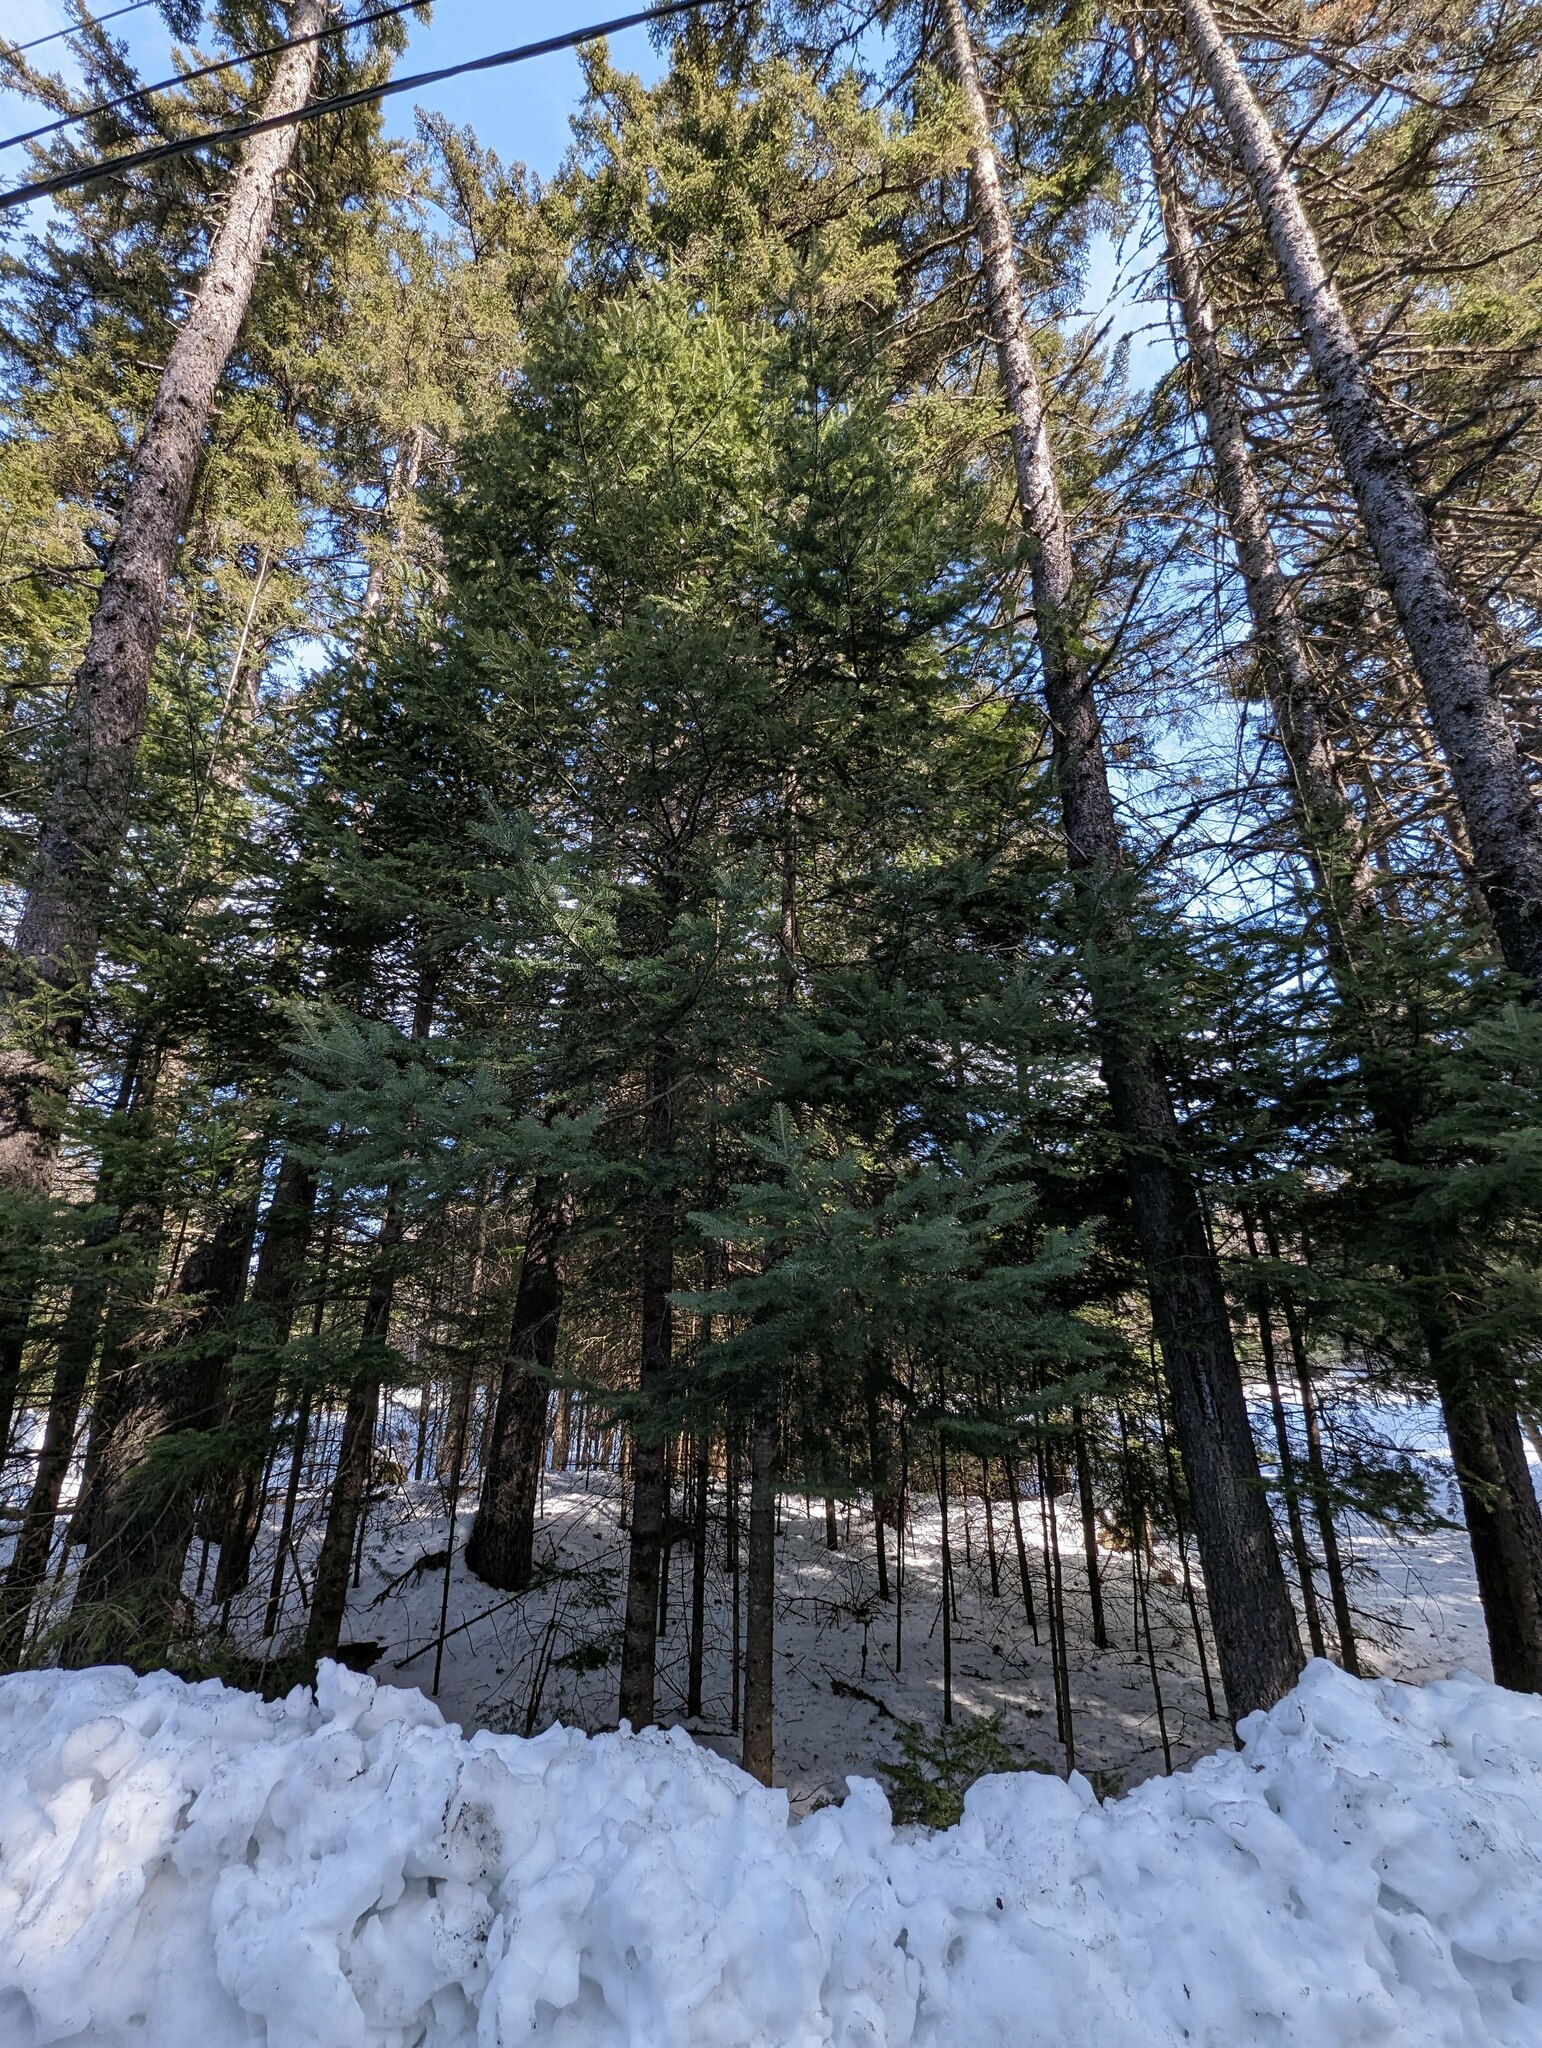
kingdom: Plantae
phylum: Tracheophyta
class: Pinopsida
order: Pinales
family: Pinaceae
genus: Abies
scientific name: Abies balsamea
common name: Balsam fir
